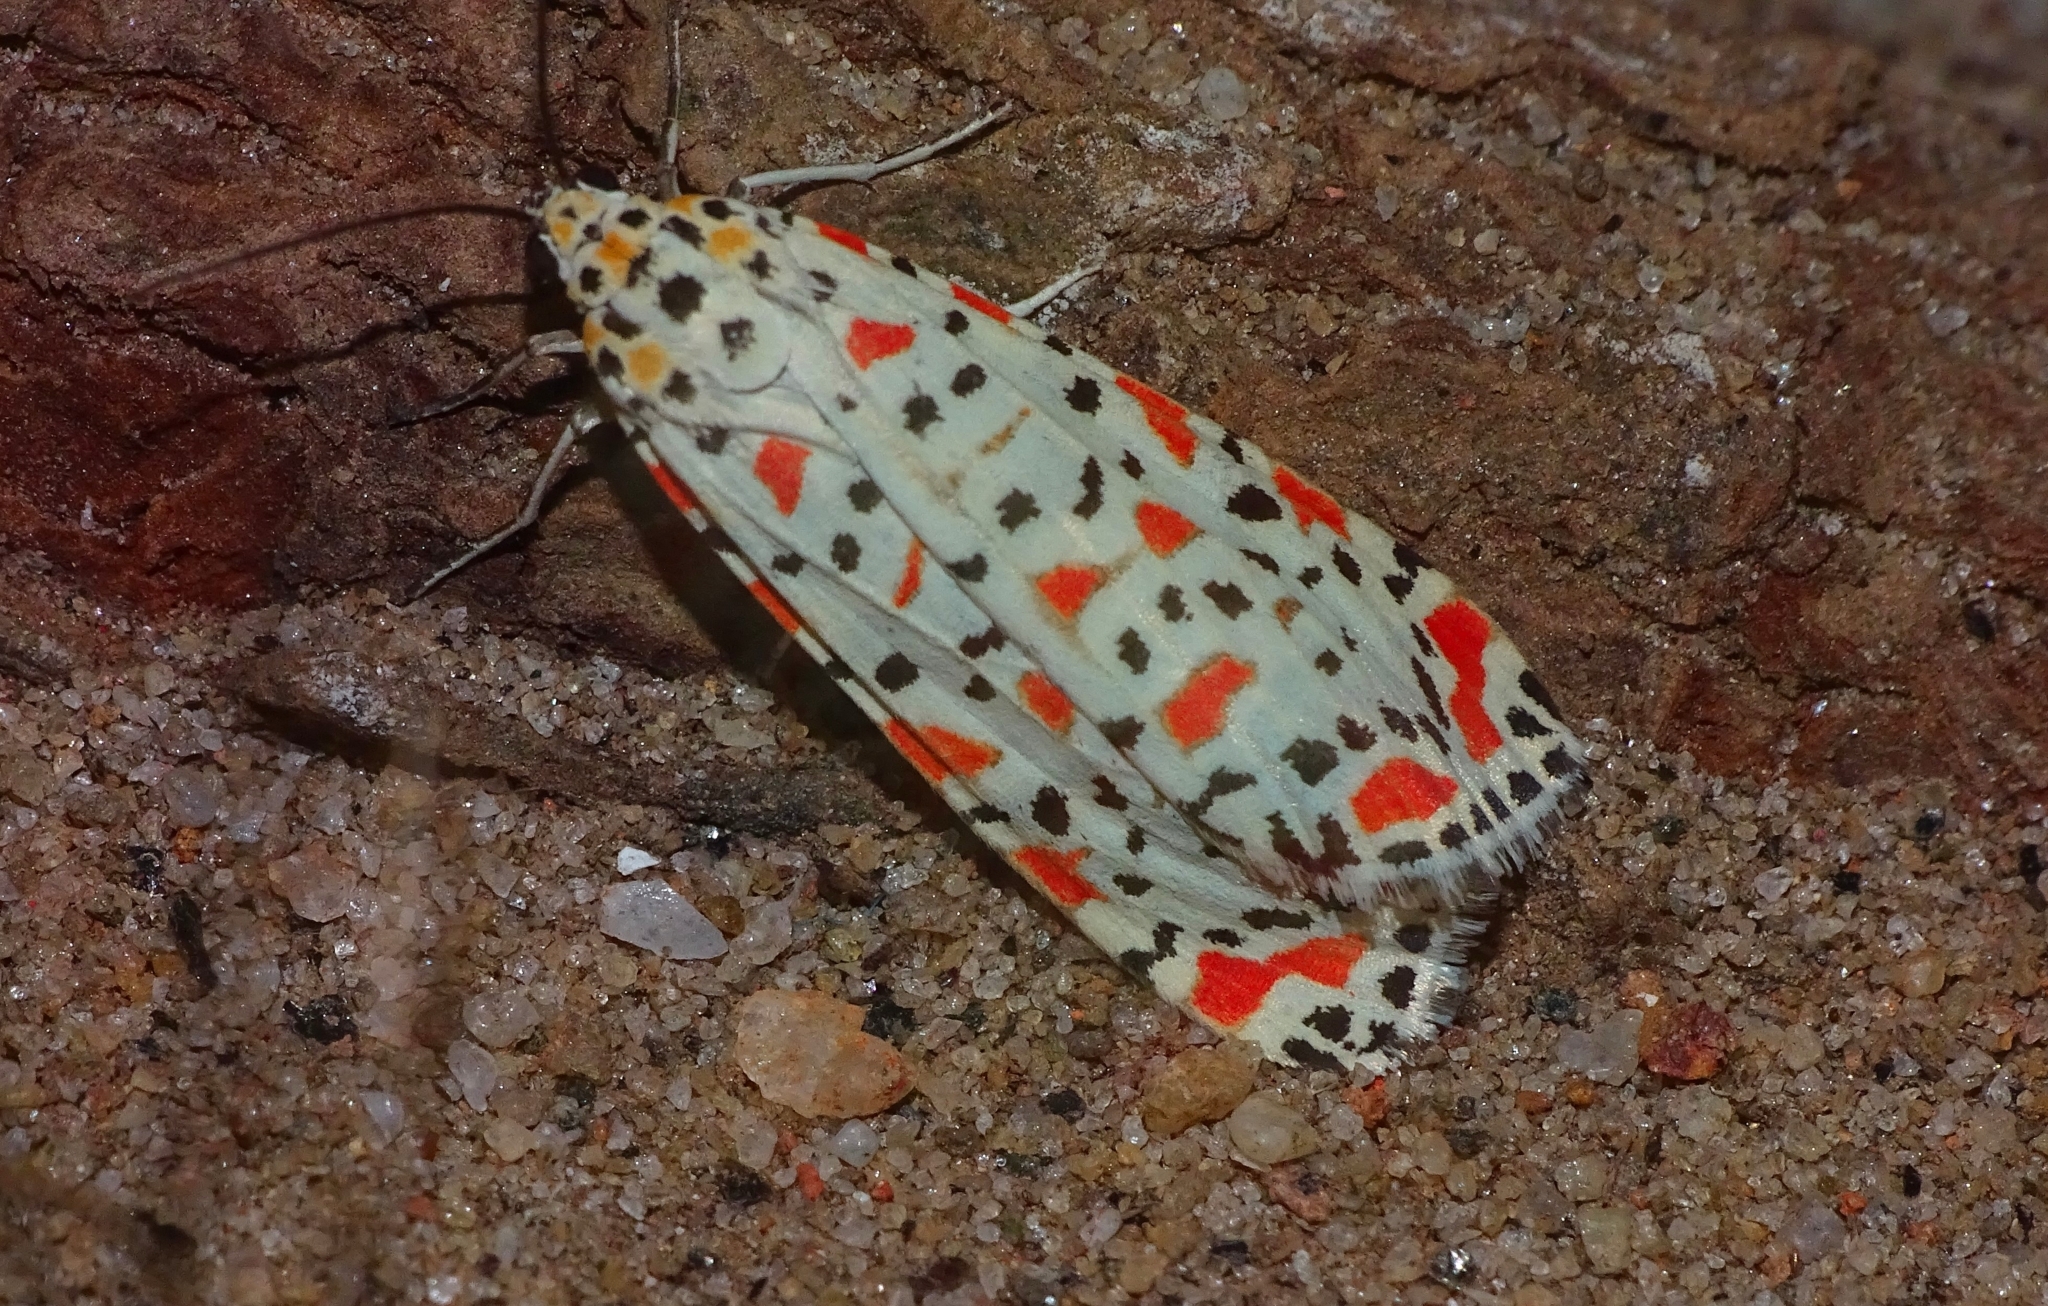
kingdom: Animalia
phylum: Arthropoda
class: Insecta
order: Lepidoptera
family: Erebidae
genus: Utetheisa
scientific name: Utetheisa lotrix
